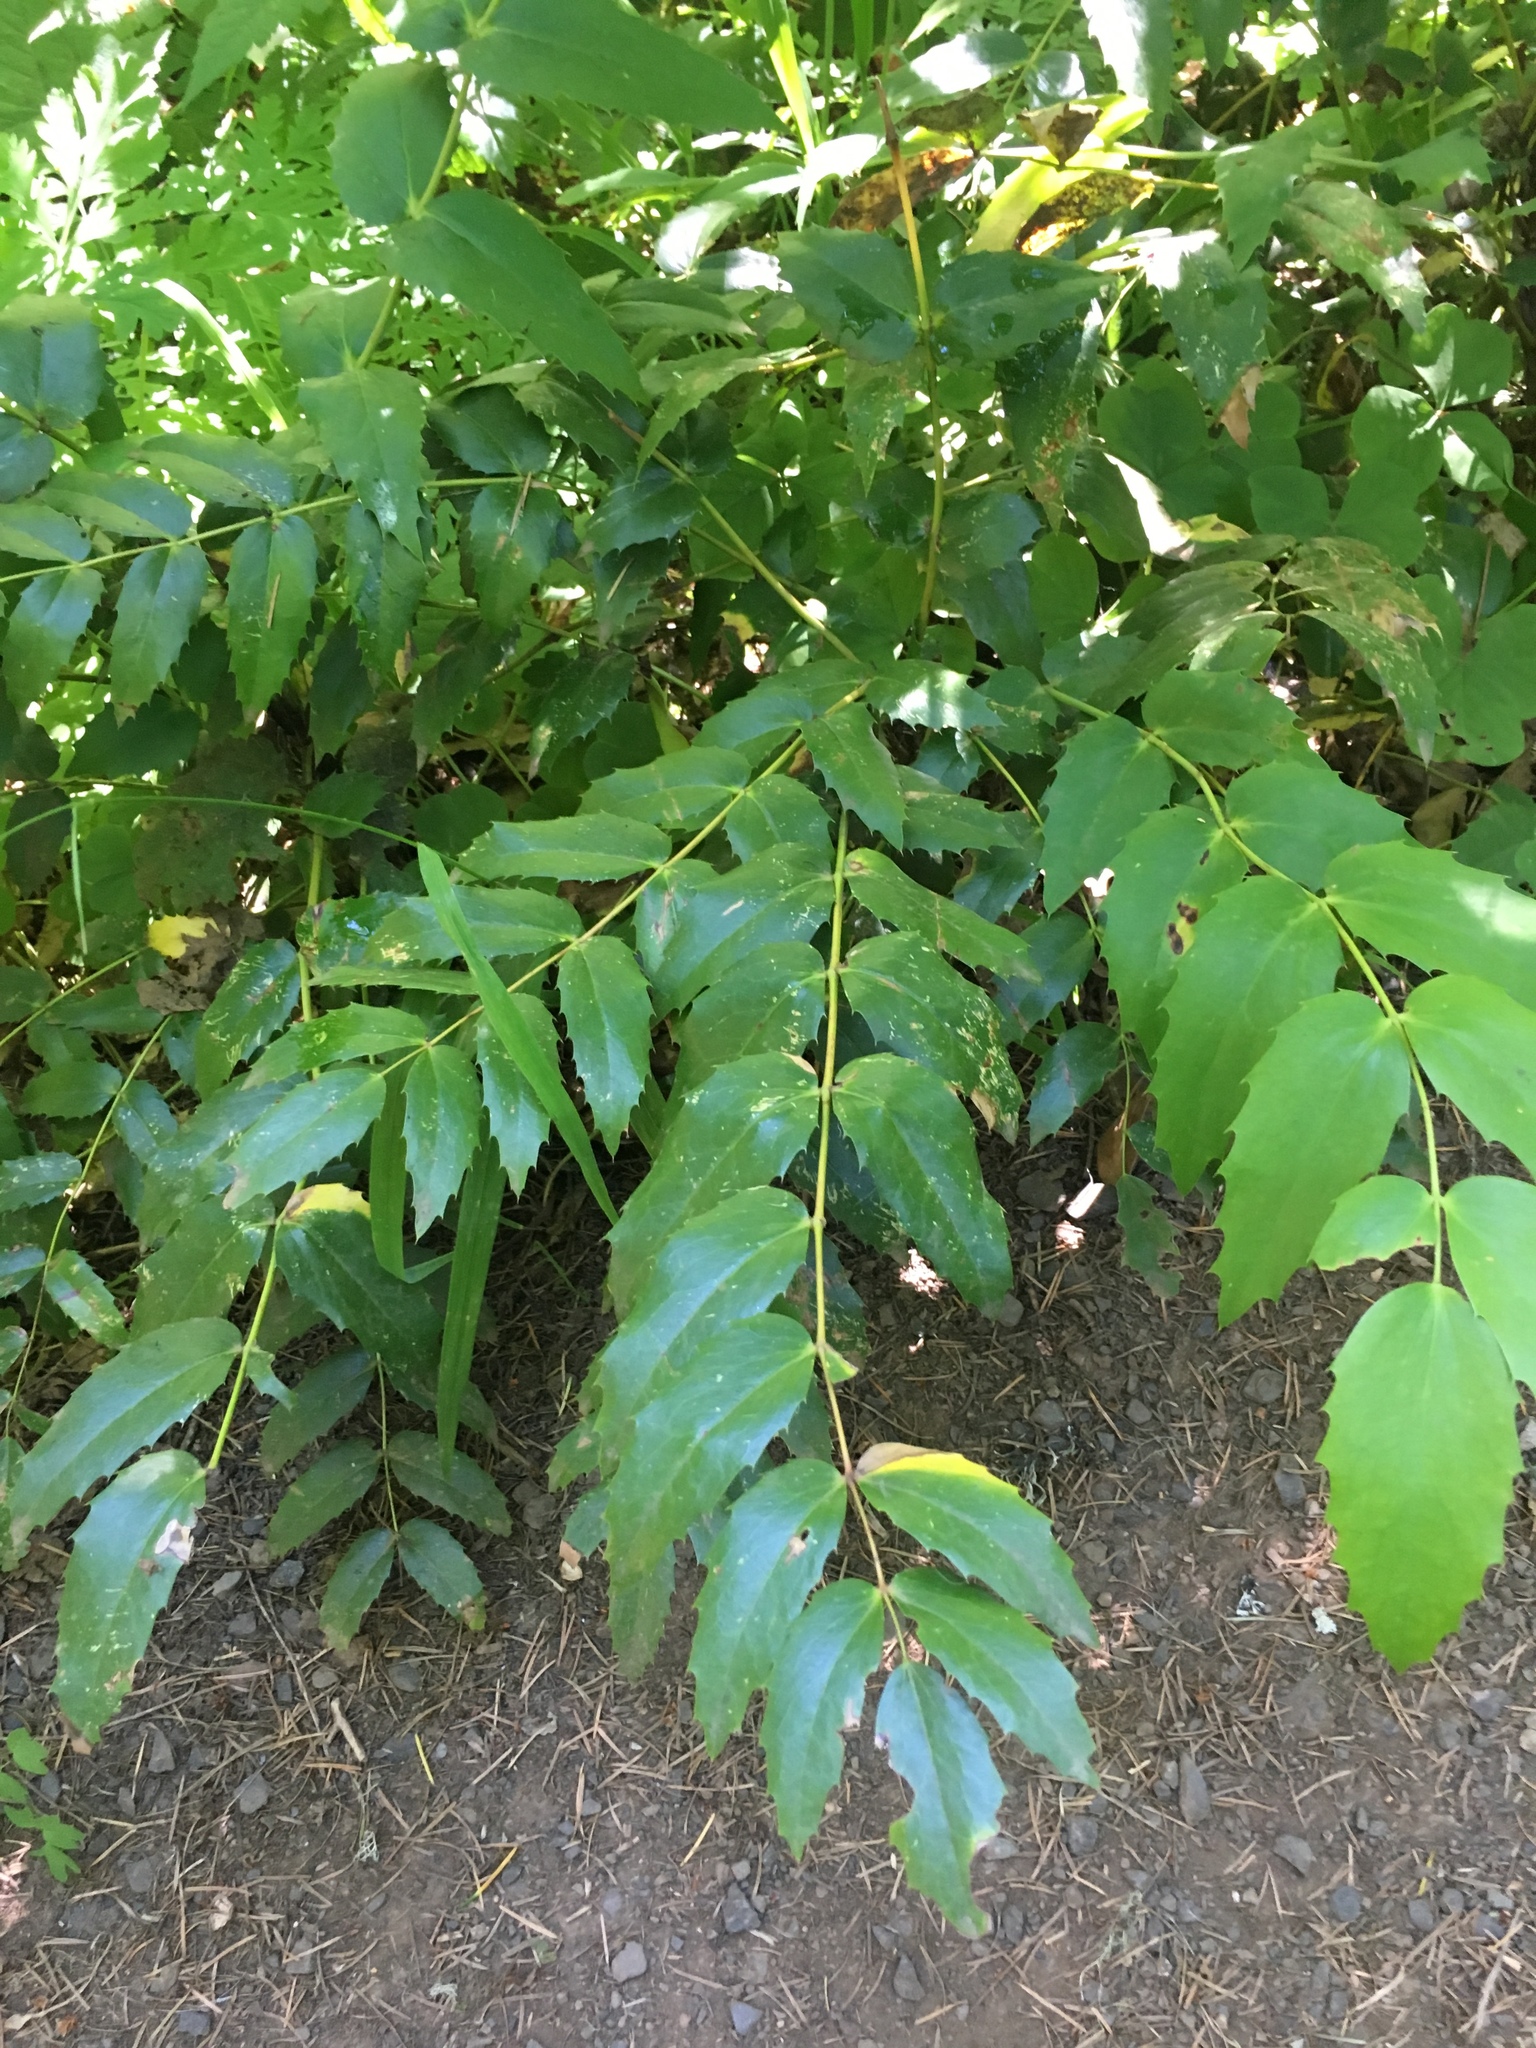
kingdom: Plantae
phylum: Tracheophyta
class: Magnoliopsida
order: Ranunculales
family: Berberidaceae
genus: Mahonia
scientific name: Mahonia nervosa
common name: Cascade oregon-grape
